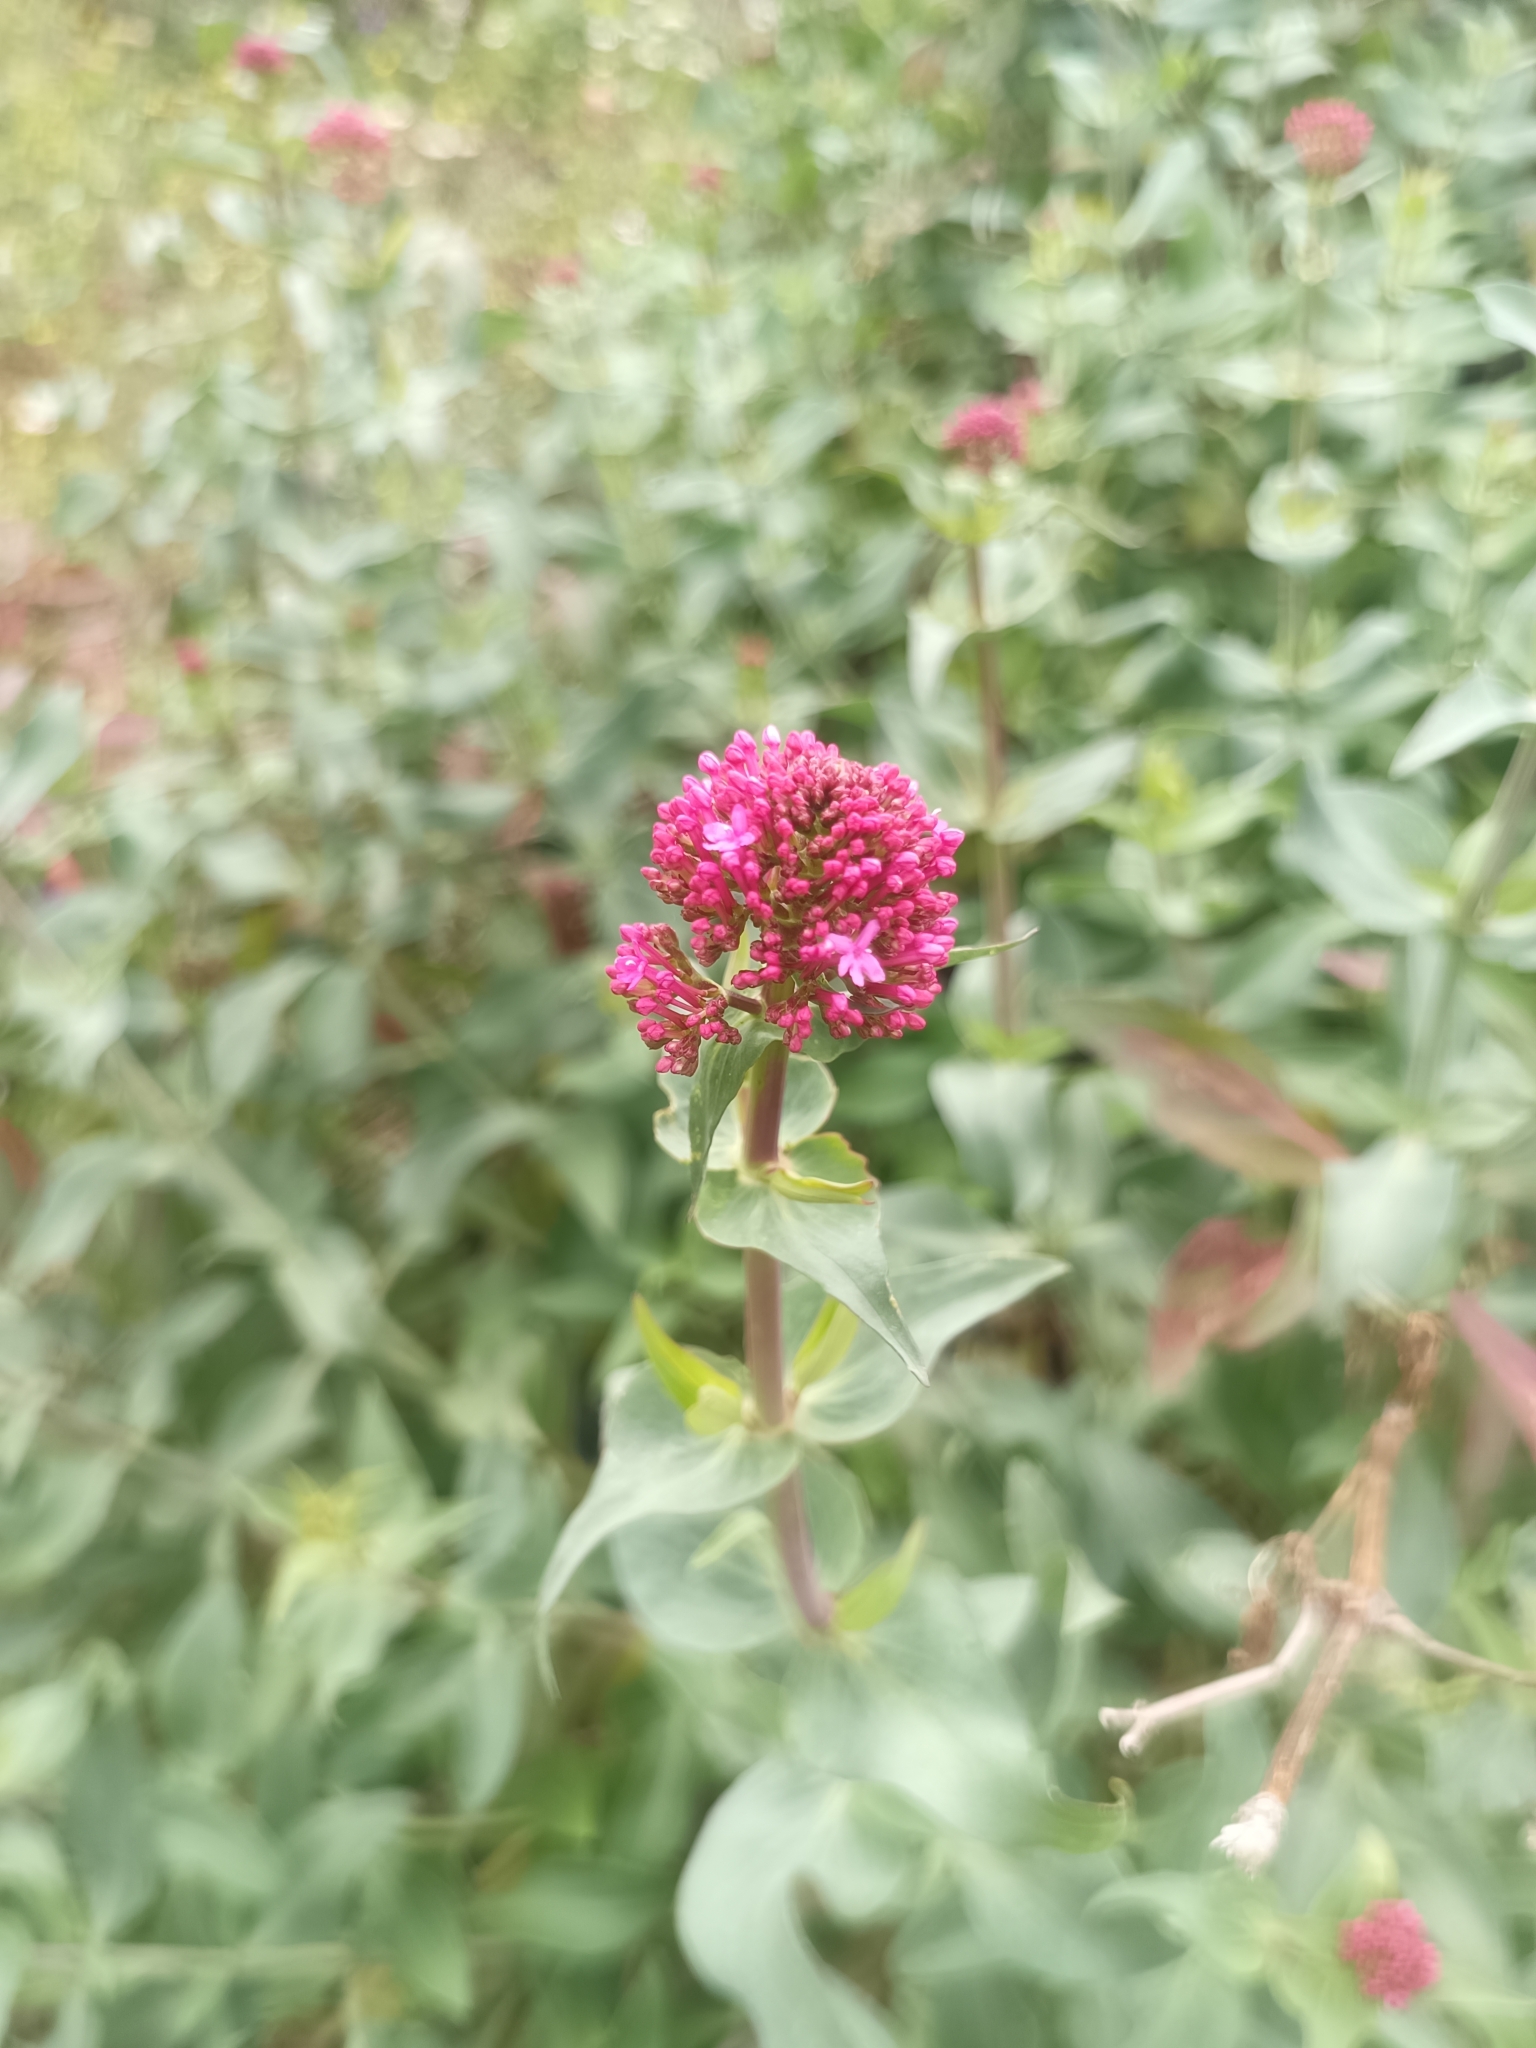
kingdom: Plantae
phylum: Tracheophyta
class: Magnoliopsida
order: Dipsacales
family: Caprifoliaceae
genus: Centranthus
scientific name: Centranthus ruber
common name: Red valerian
